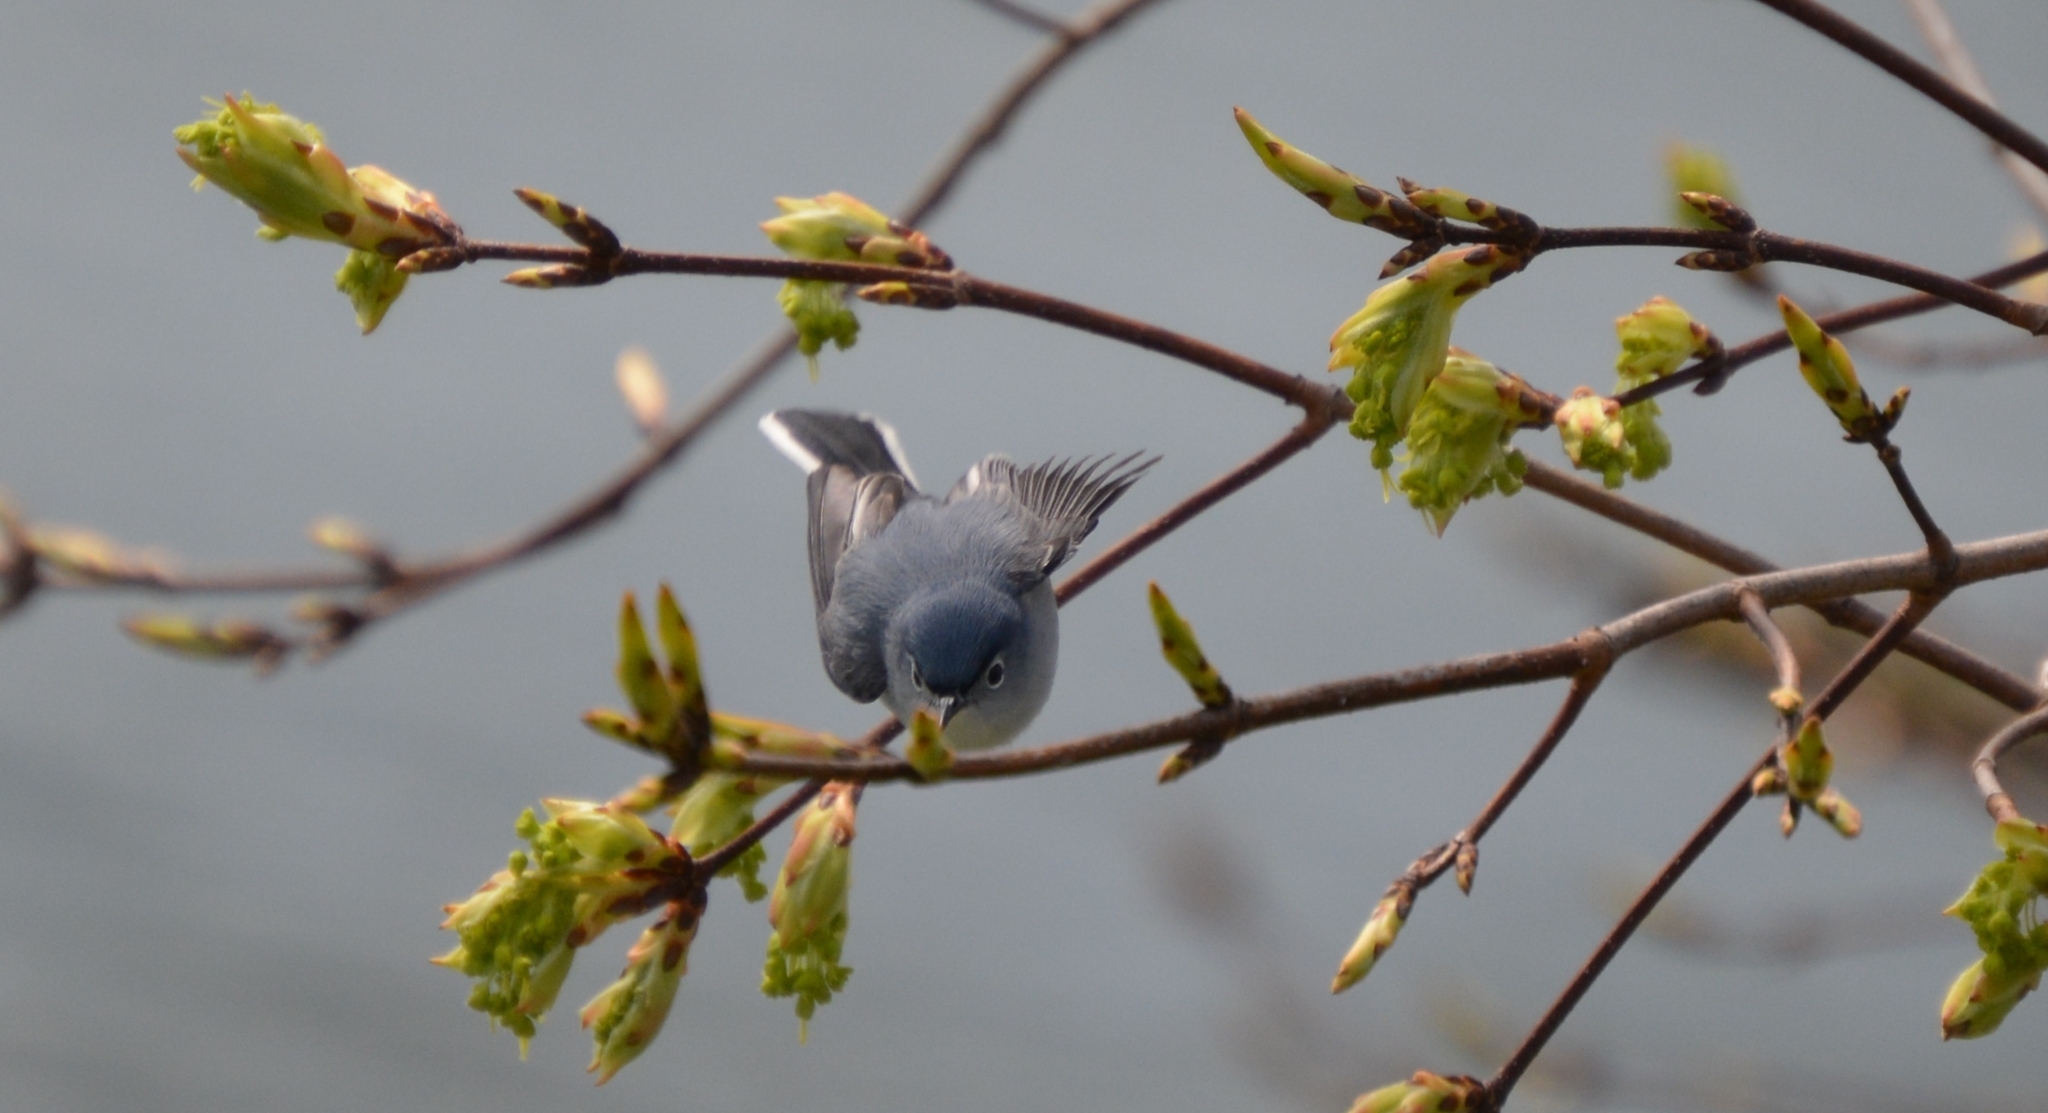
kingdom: Animalia
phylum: Chordata
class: Aves
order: Passeriformes
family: Polioptilidae
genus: Polioptila
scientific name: Polioptila caerulea
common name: Blue-gray gnatcatcher
